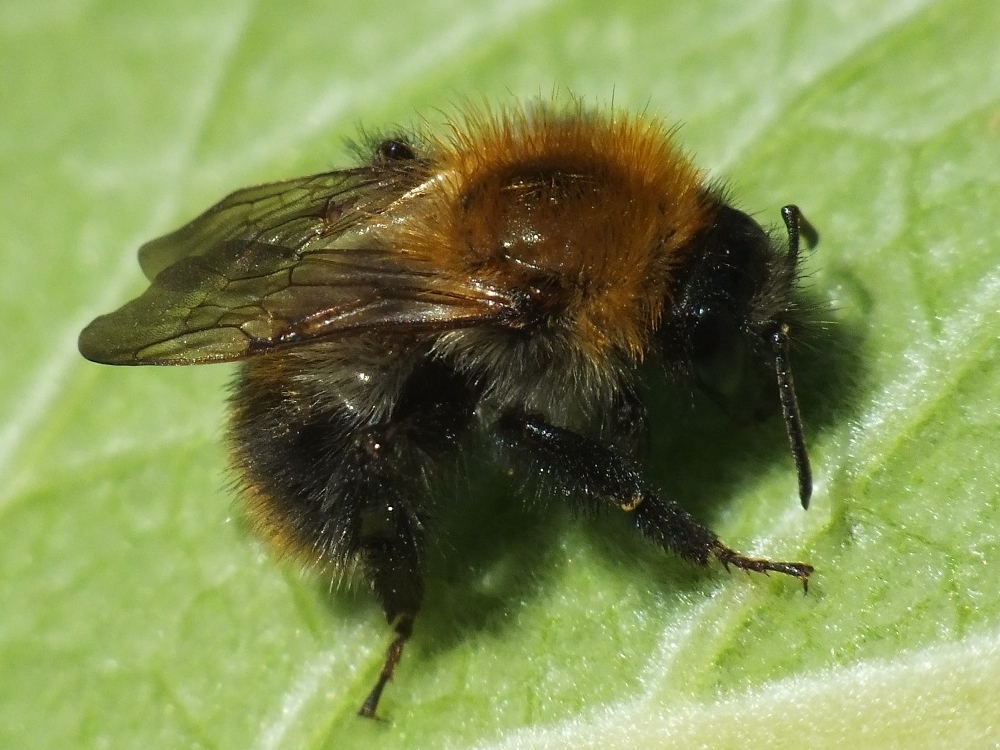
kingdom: Animalia
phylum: Arthropoda
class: Insecta
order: Hymenoptera
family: Apidae
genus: Bombus
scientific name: Bombus pascuorum
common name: Common carder bee
